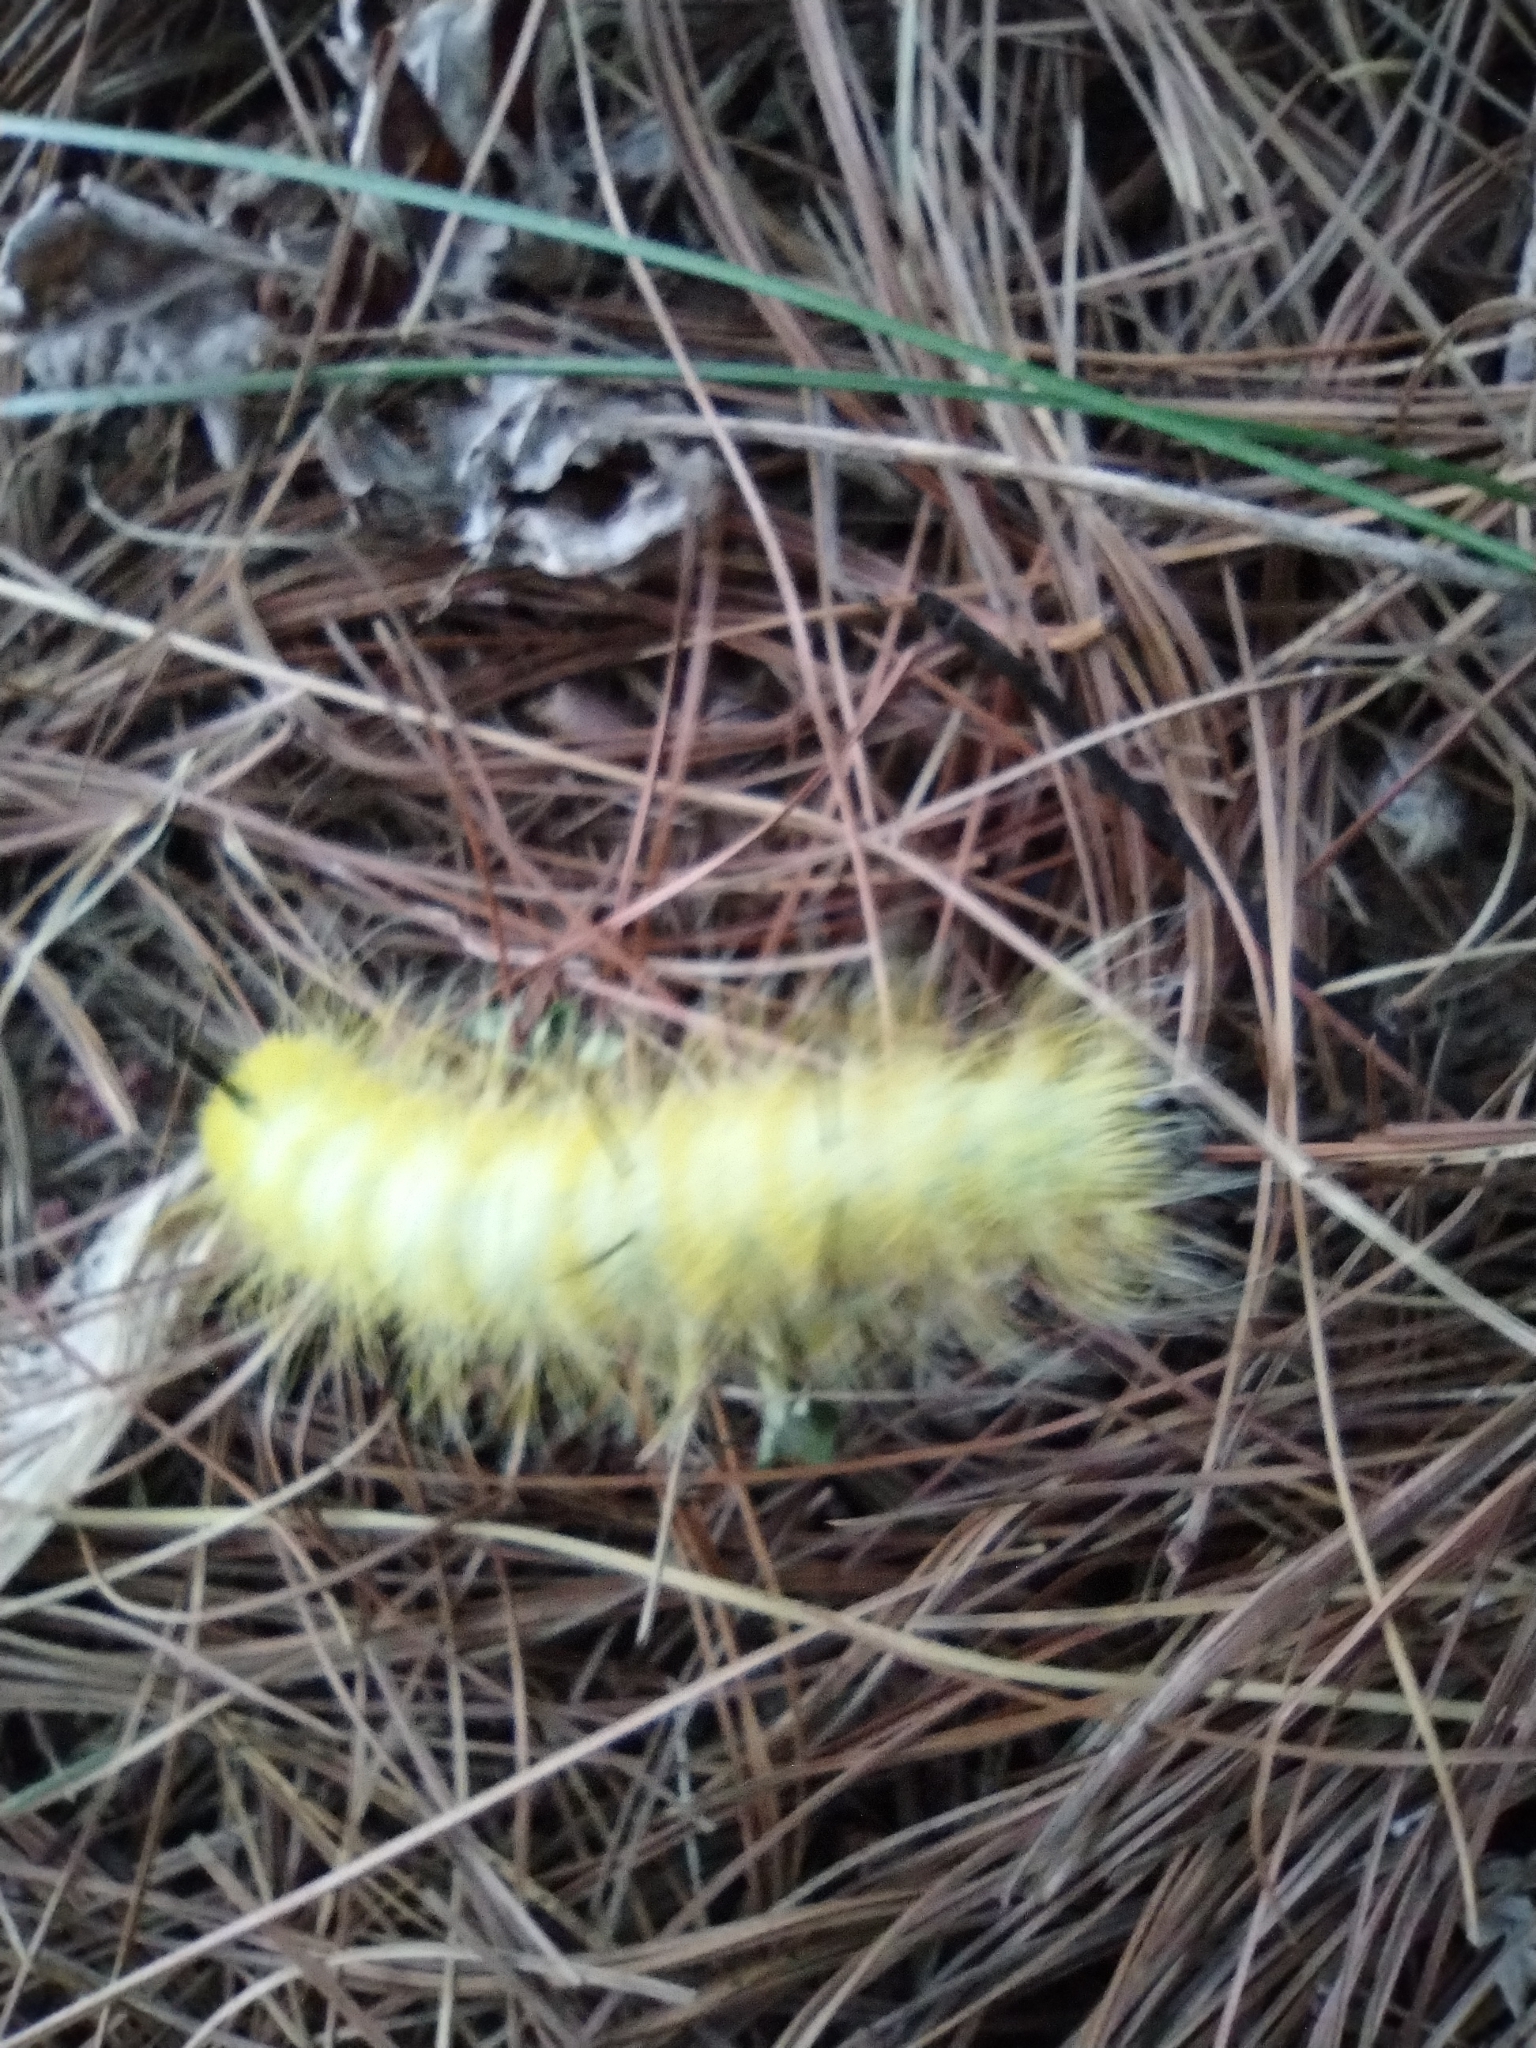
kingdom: Animalia
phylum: Arthropoda
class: Insecta
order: Lepidoptera
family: Noctuidae
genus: Acronicta
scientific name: Acronicta americana
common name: American dagger
